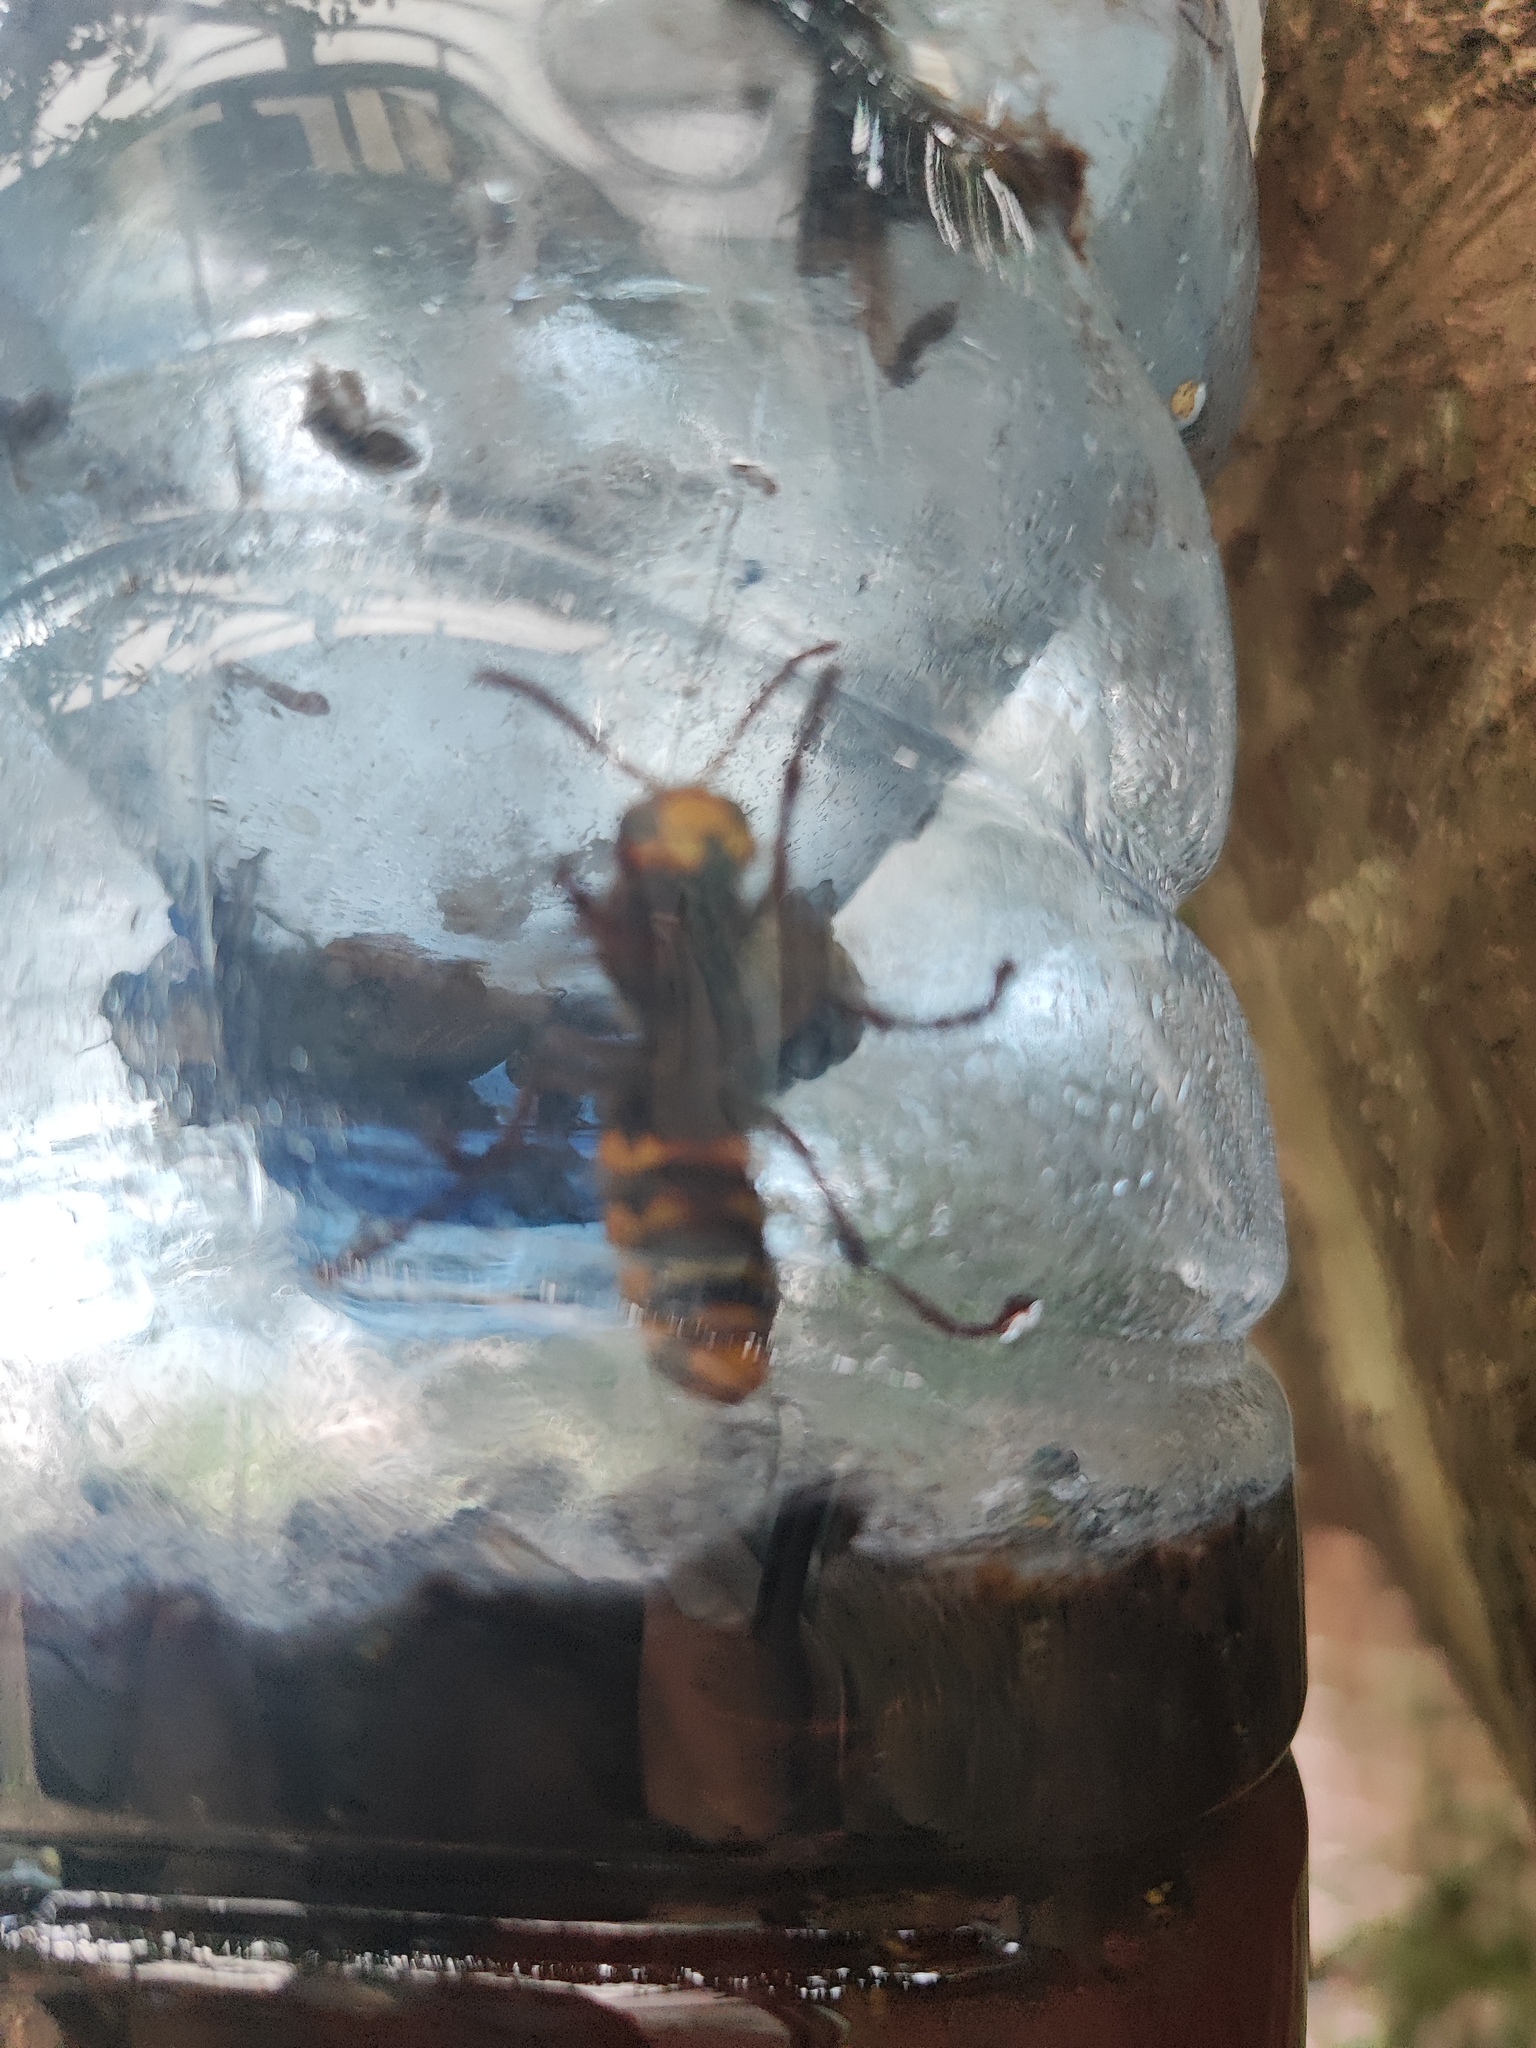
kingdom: Animalia
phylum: Arthropoda
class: Insecta
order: Hymenoptera
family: Vespidae
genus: Vespa
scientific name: Vespa crabro
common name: Hornet
